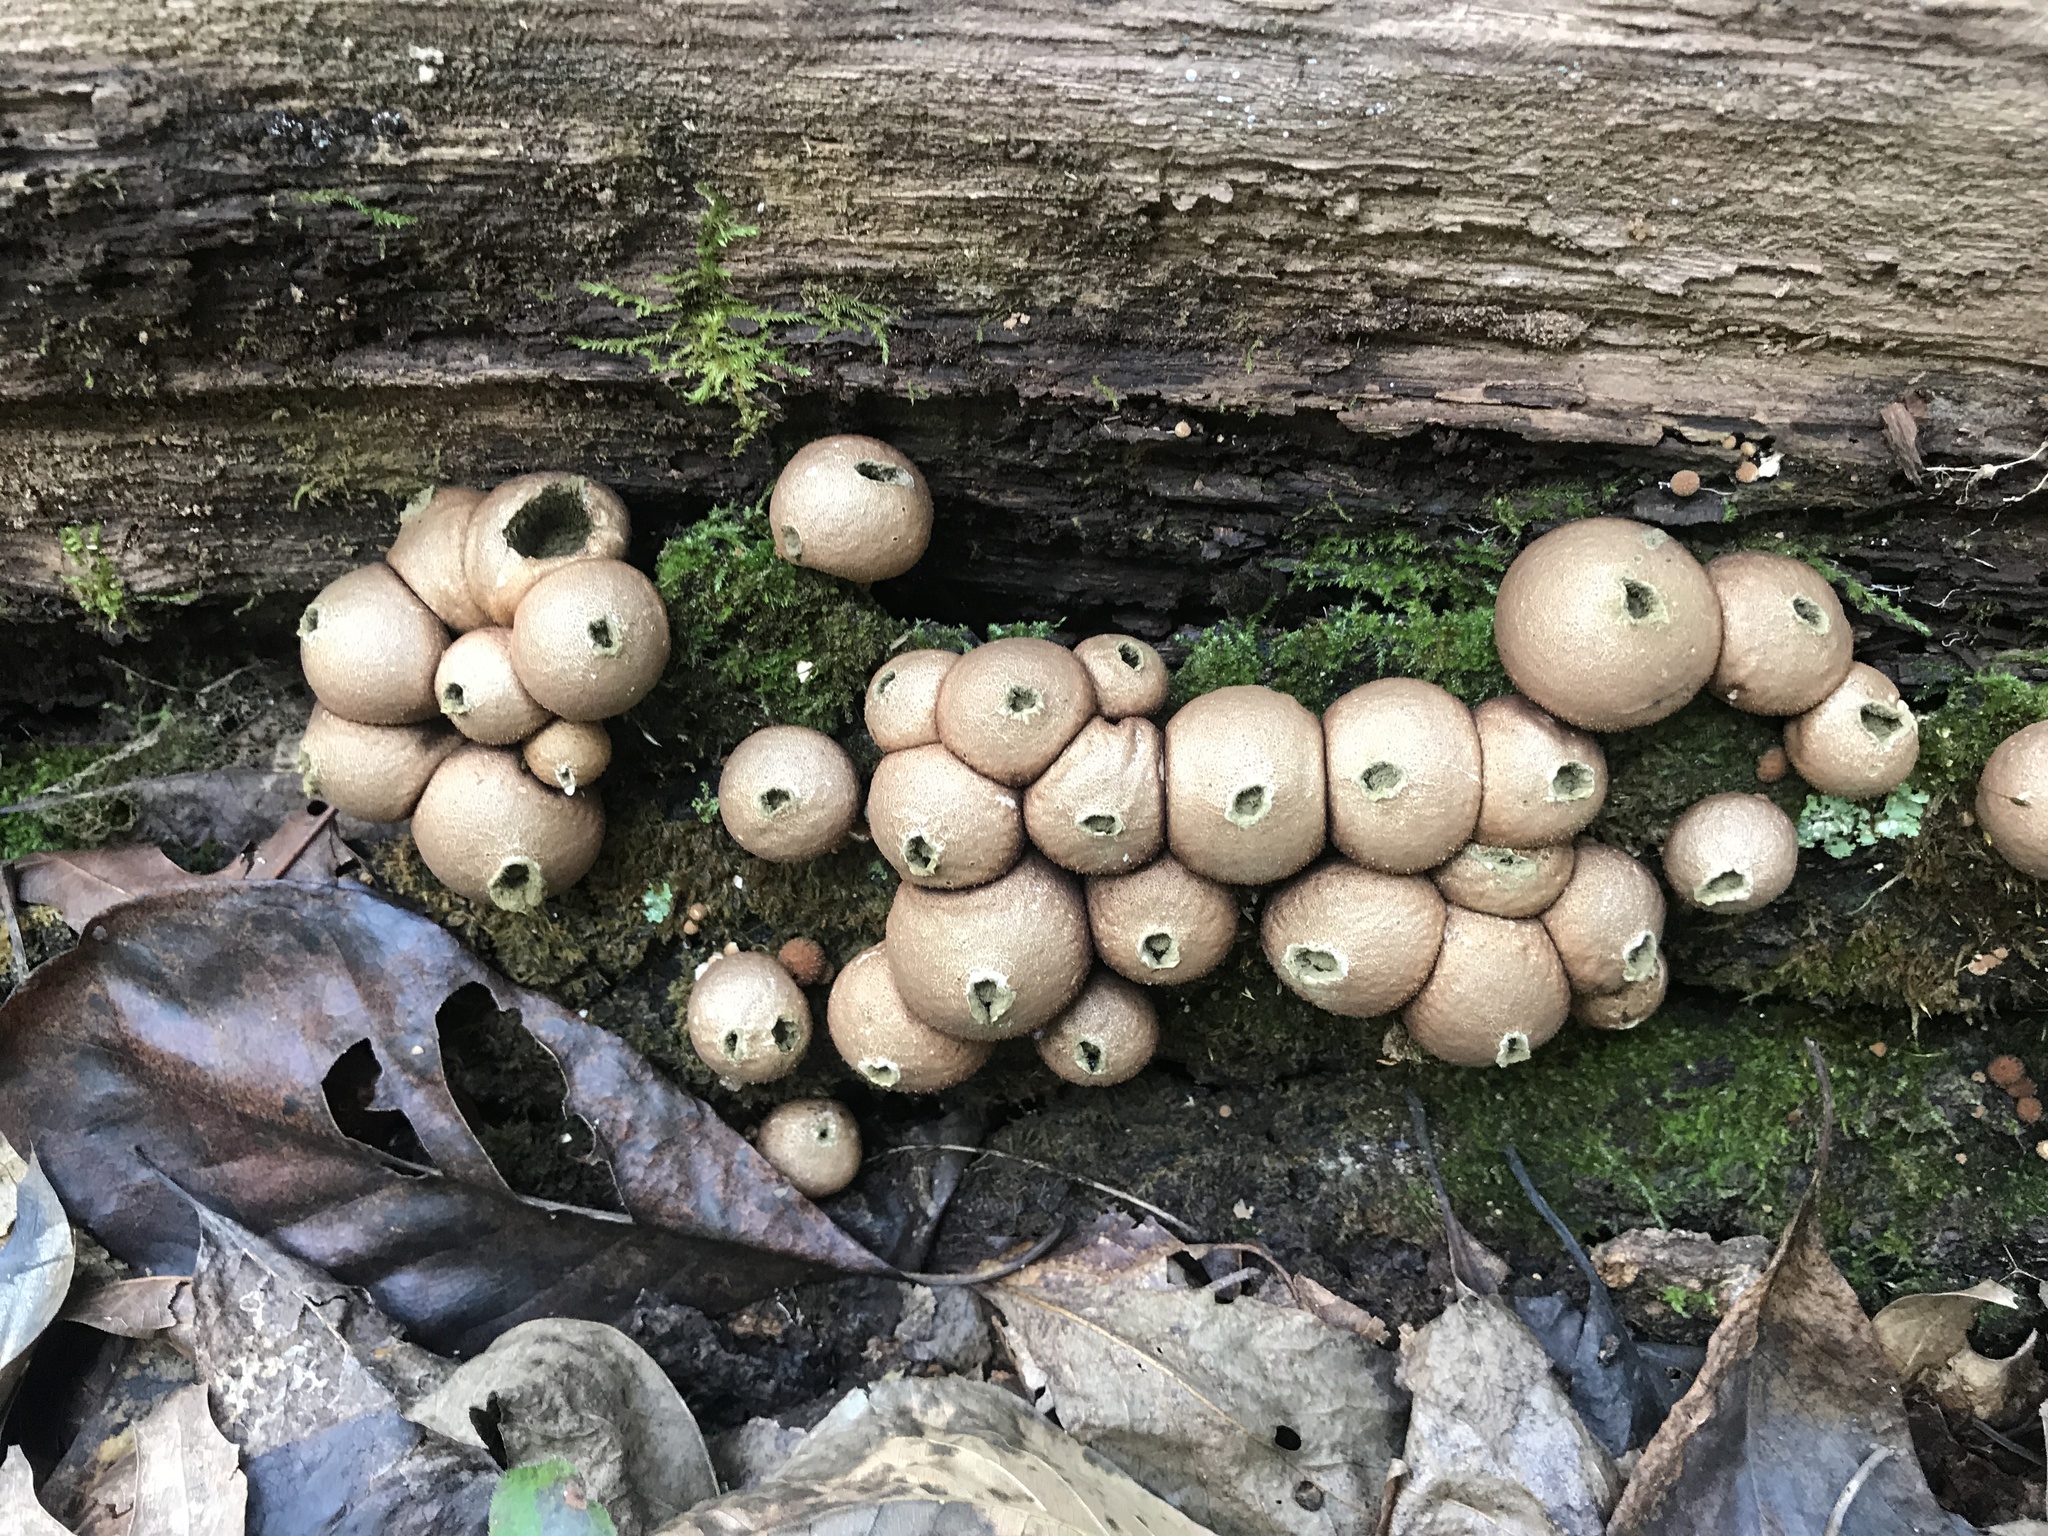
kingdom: Fungi
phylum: Basidiomycota
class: Agaricomycetes
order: Agaricales
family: Lycoperdaceae
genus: Apioperdon
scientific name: Apioperdon pyriforme
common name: Pear-shaped puffball
